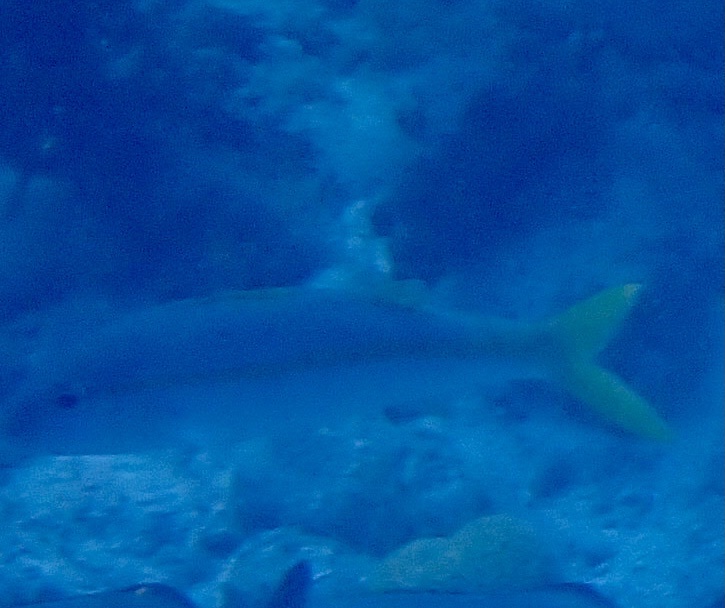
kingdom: Animalia
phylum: Chordata
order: Perciformes
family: Mullidae
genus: Mulloidichthys
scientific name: Mulloidichthys martinicus
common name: Yellow goatfish
